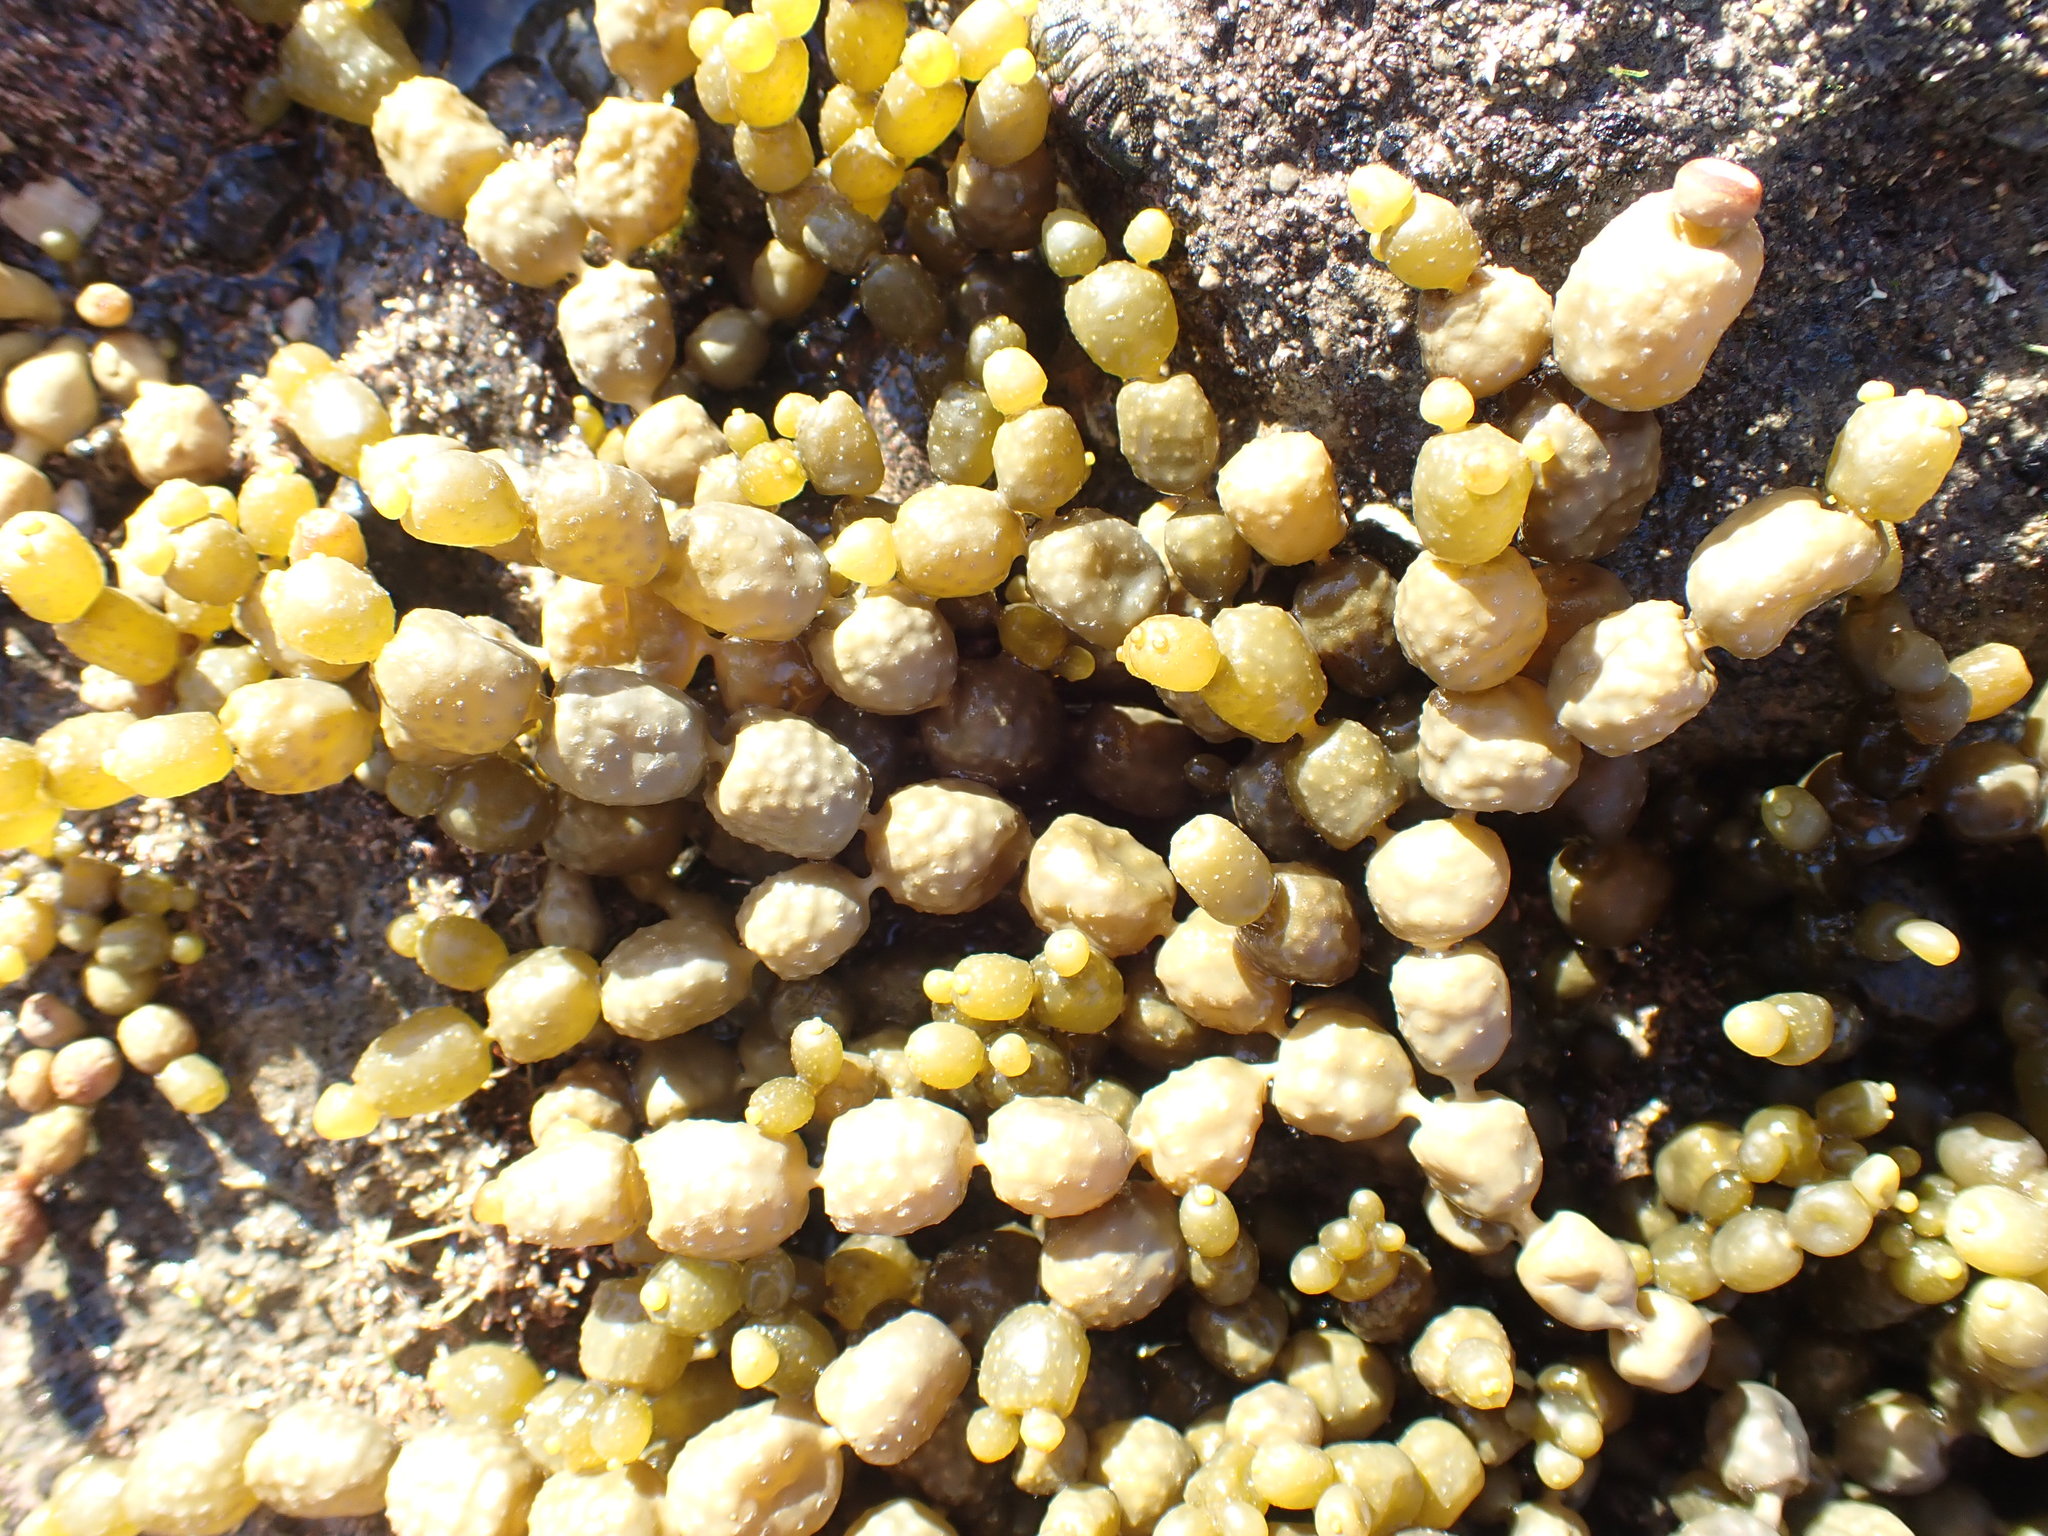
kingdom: Chromista
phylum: Ochrophyta
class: Phaeophyceae
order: Fucales
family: Hormosiraceae
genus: Hormosira
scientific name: Hormosira banksii
